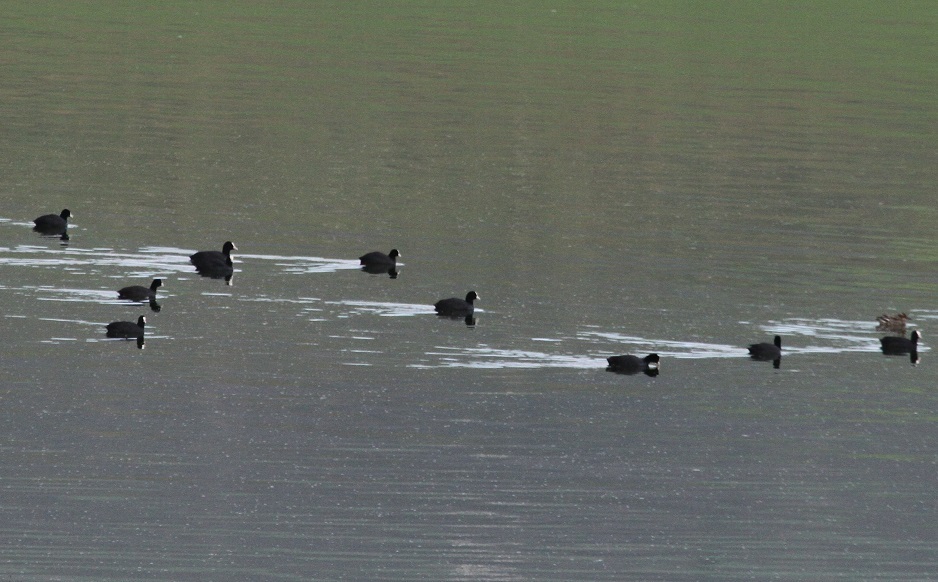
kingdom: Animalia
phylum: Chordata
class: Aves
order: Gruiformes
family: Rallidae
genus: Fulica
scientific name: Fulica atra
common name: Eurasian coot
